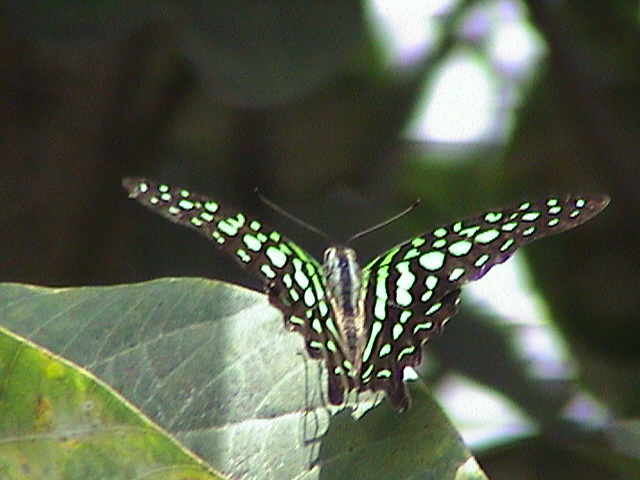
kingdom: Animalia
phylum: Arthropoda
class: Insecta
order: Lepidoptera
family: Papilionidae
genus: Graphium
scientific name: Graphium agamemnon
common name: Tailed jay
